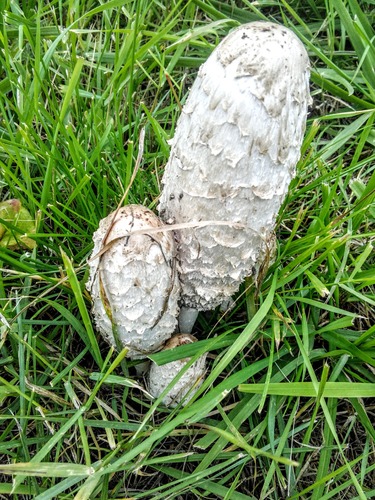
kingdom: Fungi
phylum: Basidiomycota
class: Agaricomycetes
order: Agaricales
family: Agaricaceae
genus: Coprinus
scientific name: Coprinus comatus
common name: Lawyer's wig
